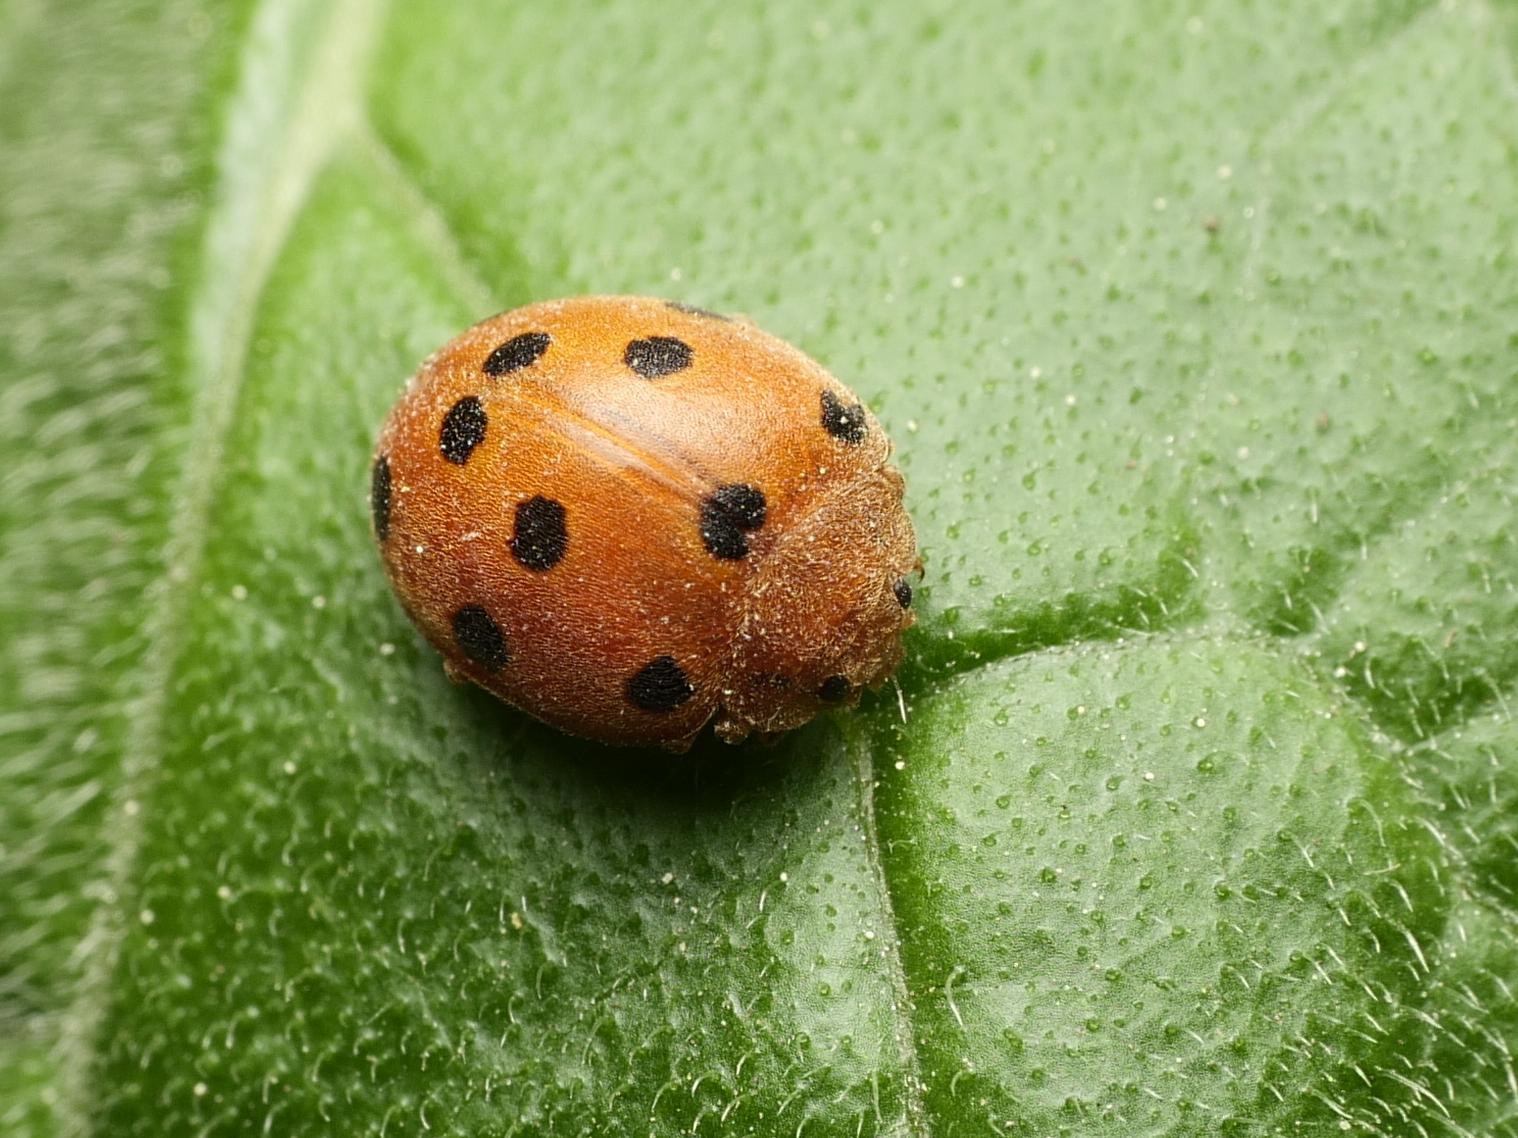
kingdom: Animalia
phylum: Arthropoda
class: Insecta
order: Coleoptera
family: Coccinellidae
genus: Henosepilachna
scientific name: Henosepilachna argus
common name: Bryony ladybird
